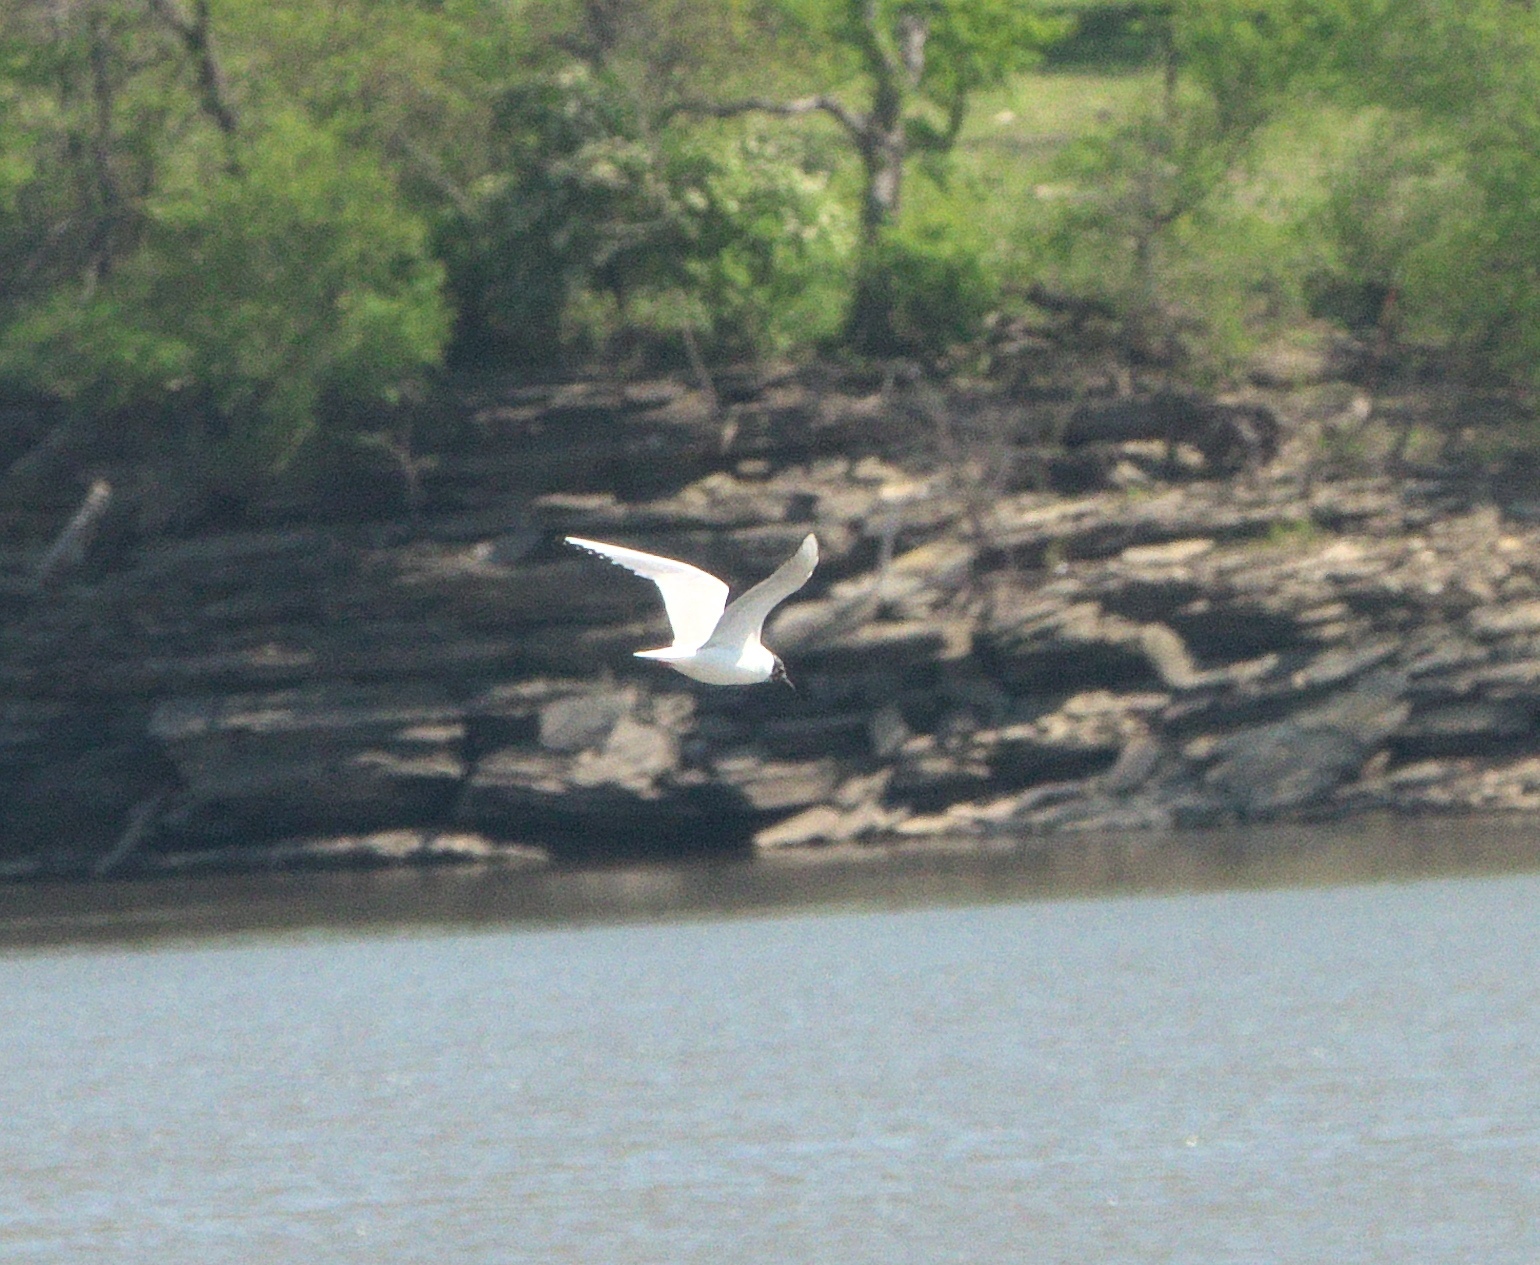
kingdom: Animalia
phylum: Chordata
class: Aves
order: Charadriiformes
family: Laridae
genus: Chroicocephalus
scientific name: Chroicocephalus philadelphia
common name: Bonaparte's gull
